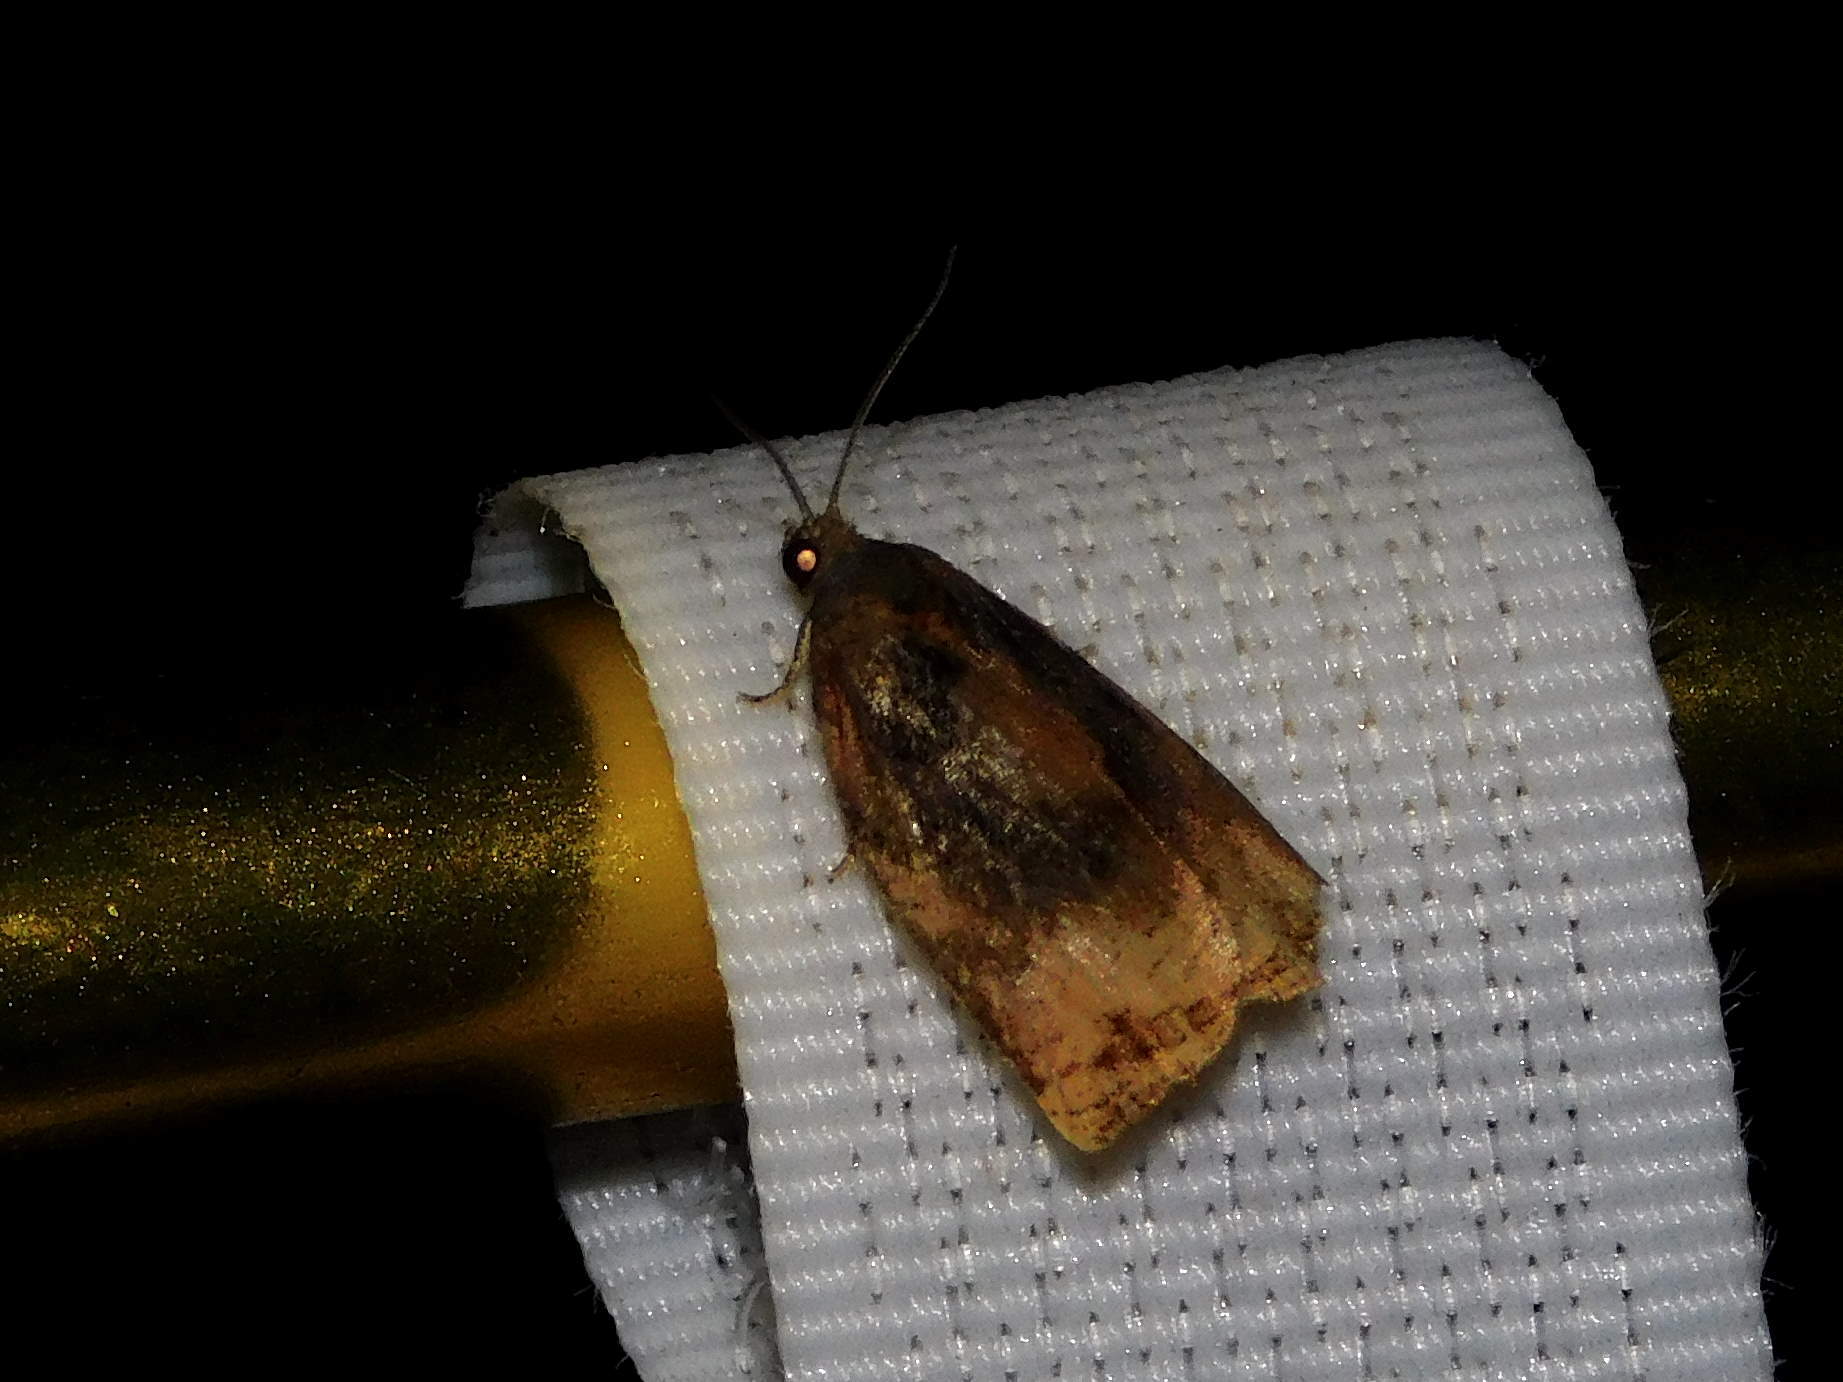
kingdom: Animalia
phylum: Arthropoda
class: Insecta
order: Lepidoptera
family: Tortricidae
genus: Archips
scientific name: Archips podana
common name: Large fruit-tree tortrix
